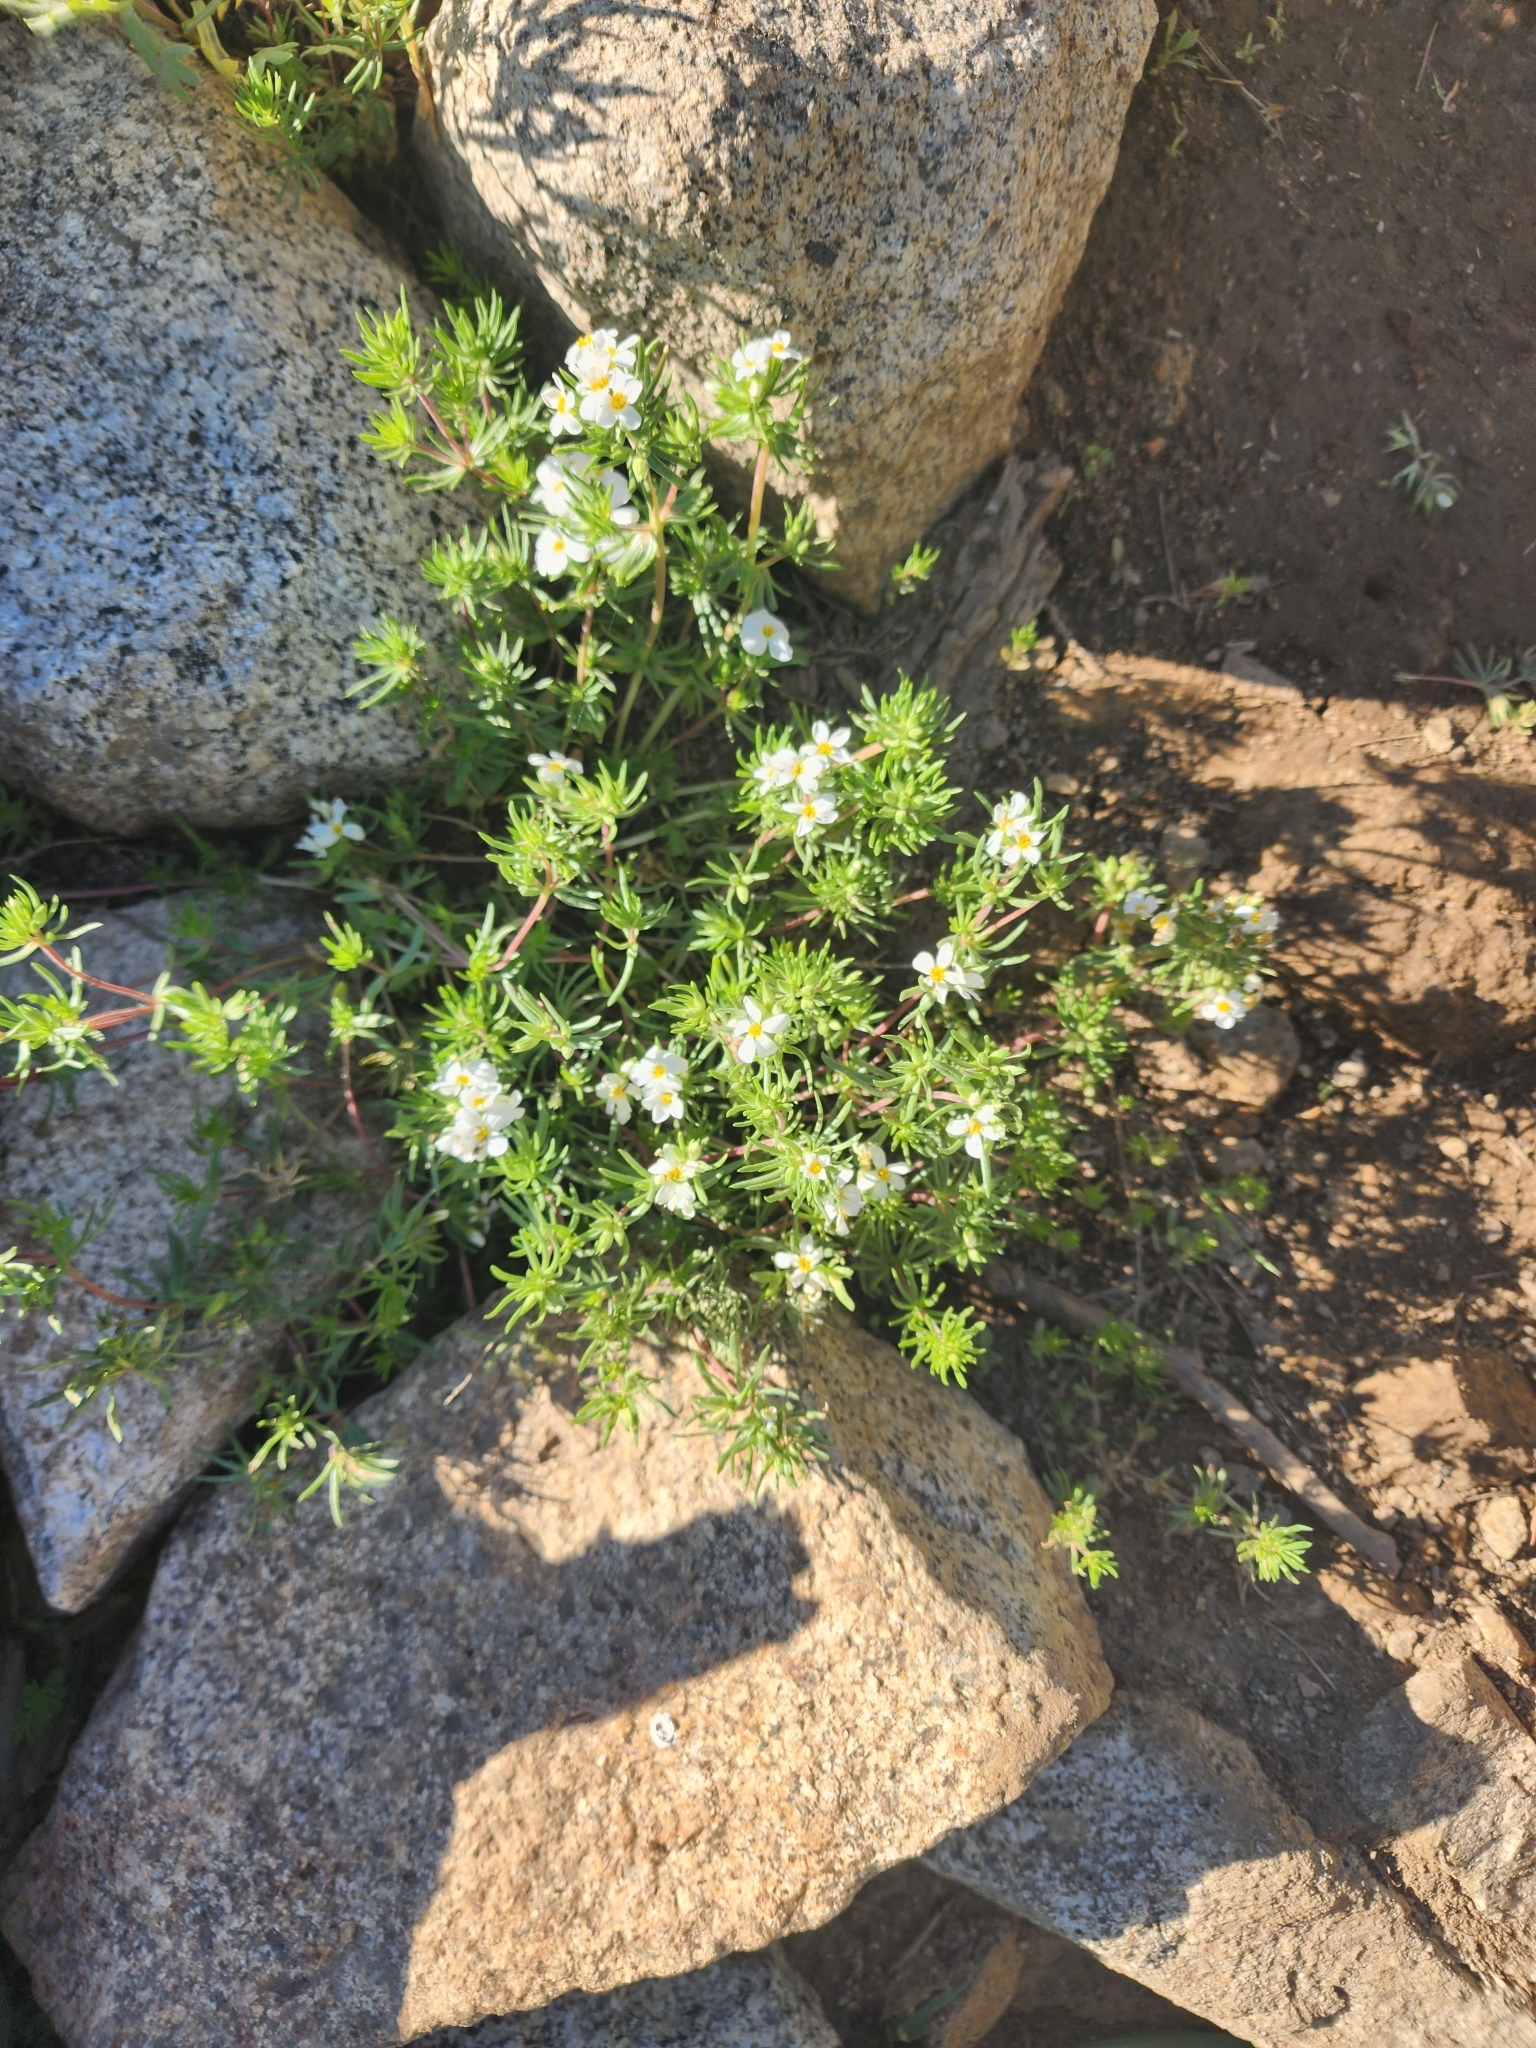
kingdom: Plantae
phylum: Tracheophyta
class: Magnoliopsida
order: Ericales
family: Polemoniaceae
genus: Leptosiphon
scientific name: Leptosiphon nuttallii
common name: Nuttall's linanthus
